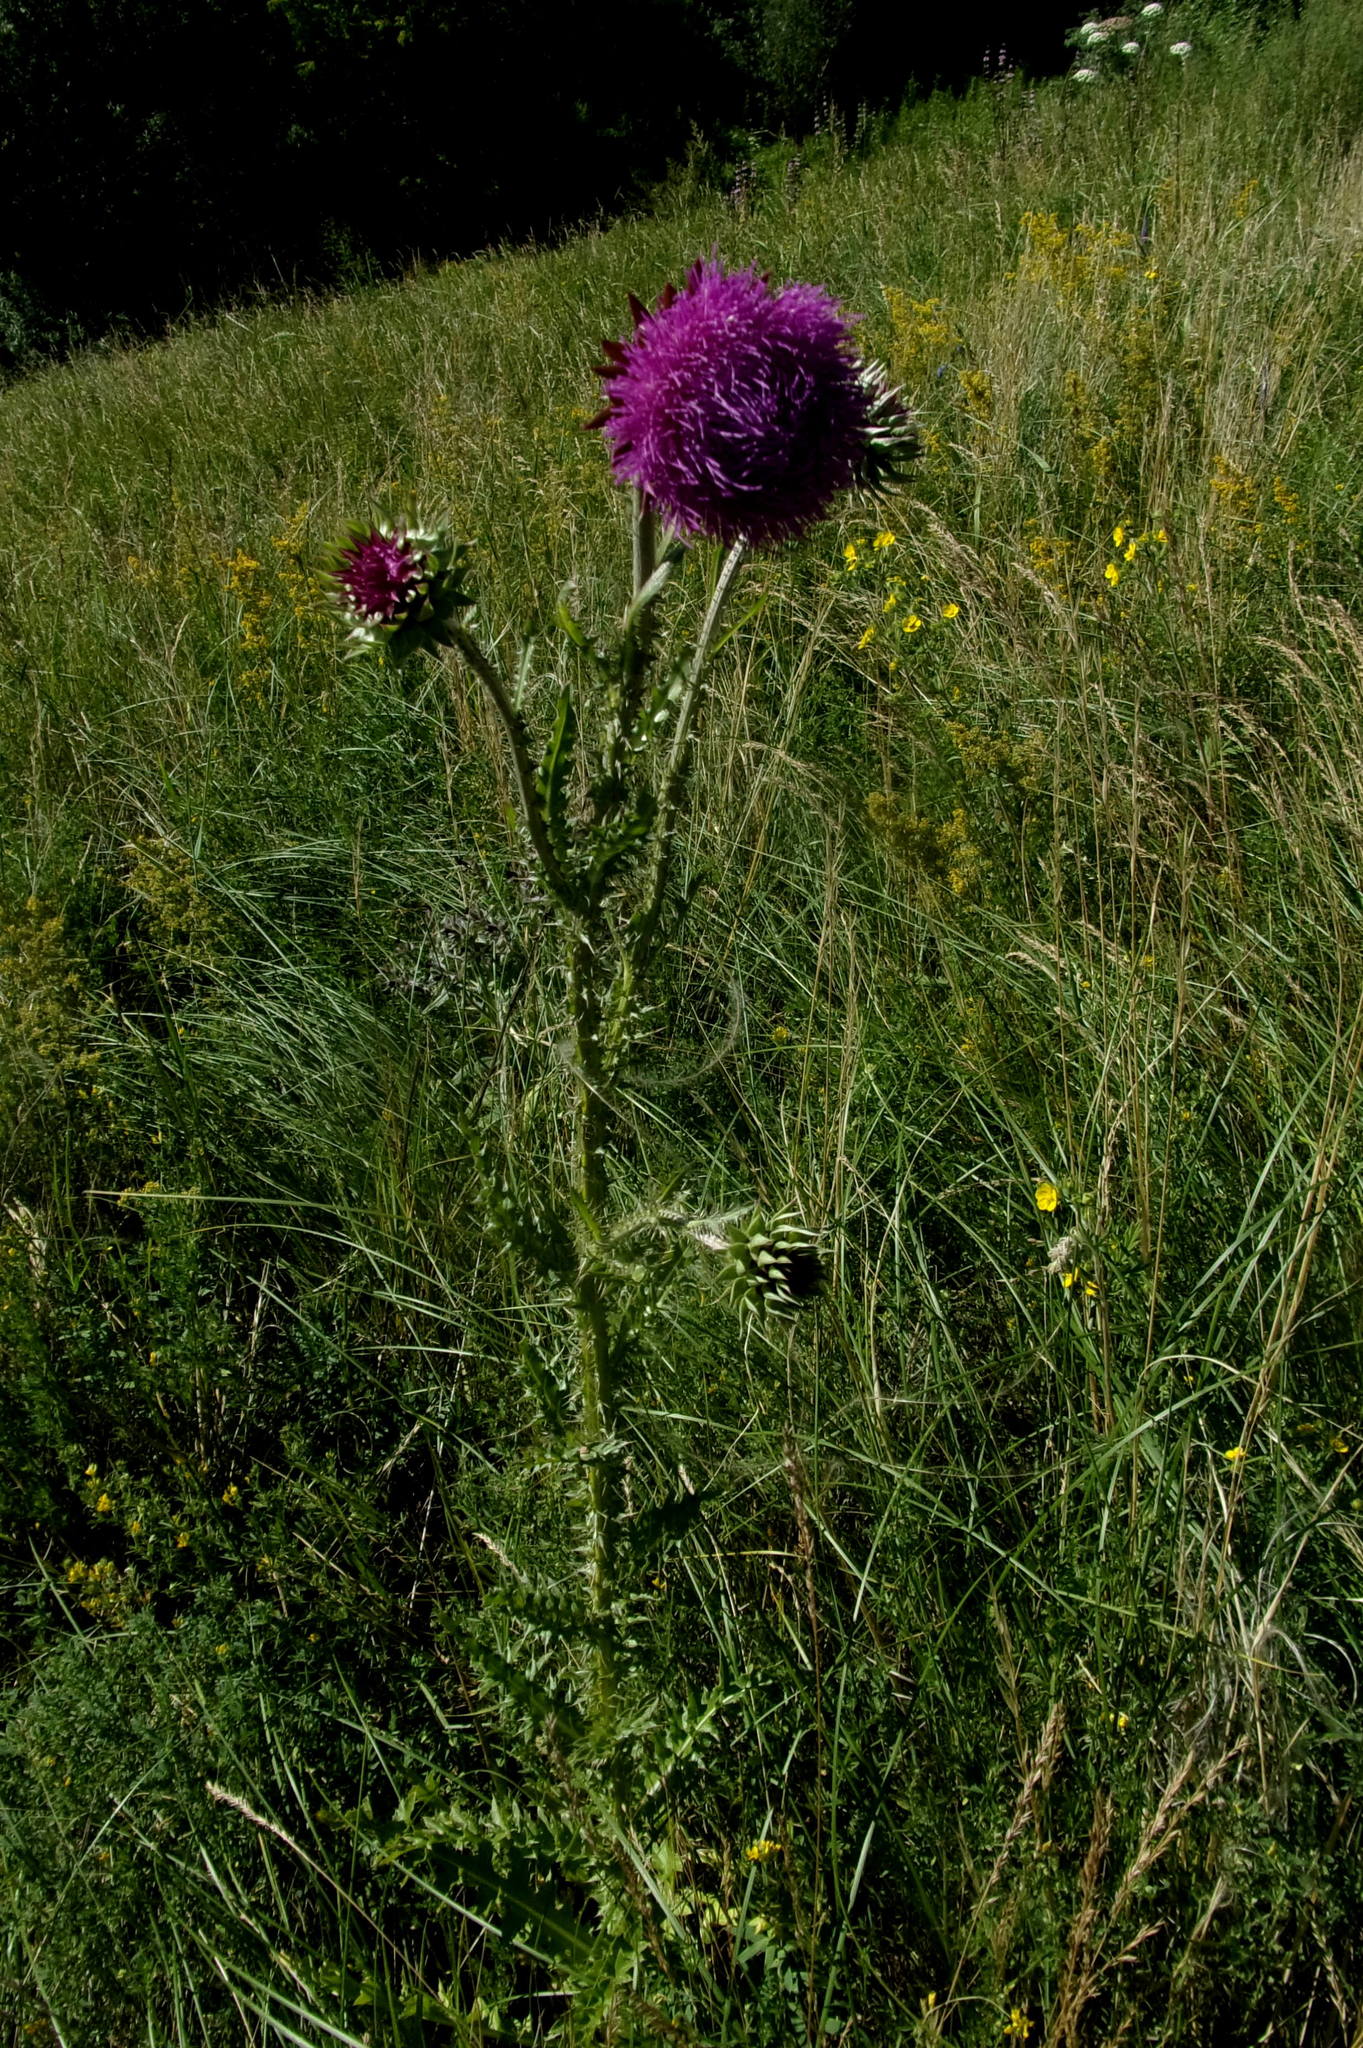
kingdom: Plantae
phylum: Tracheophyta
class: Magnoliopsida
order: Asterales
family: Asteraceae
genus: Carduus
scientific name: Carduus nutans
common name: Musk thistle
